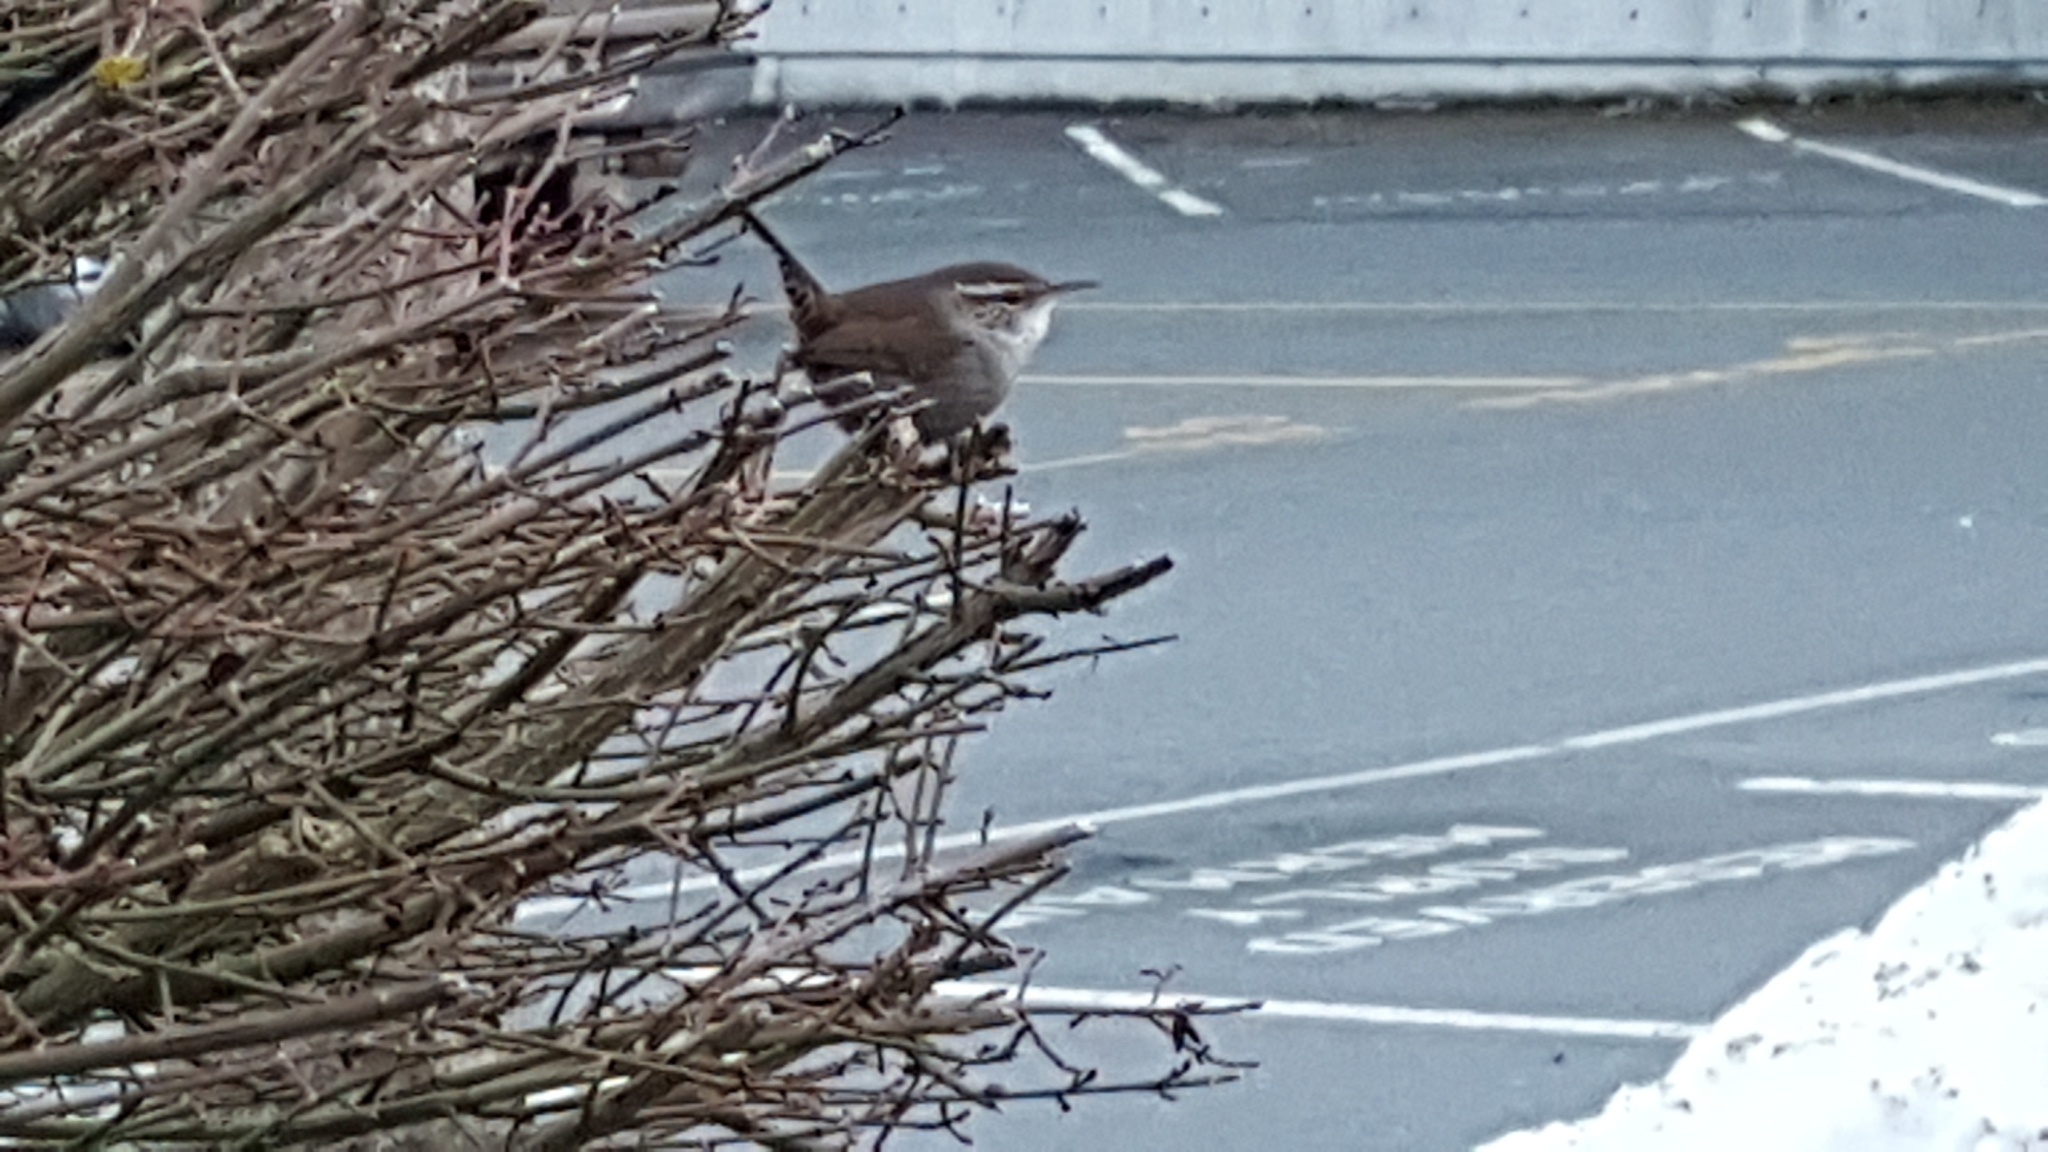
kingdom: Animalia
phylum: Chordata
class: Aves
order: Passeriformes
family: Troglodytidae
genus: Thryomanes
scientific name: Thryomanes bewickii
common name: Bewick's wren
